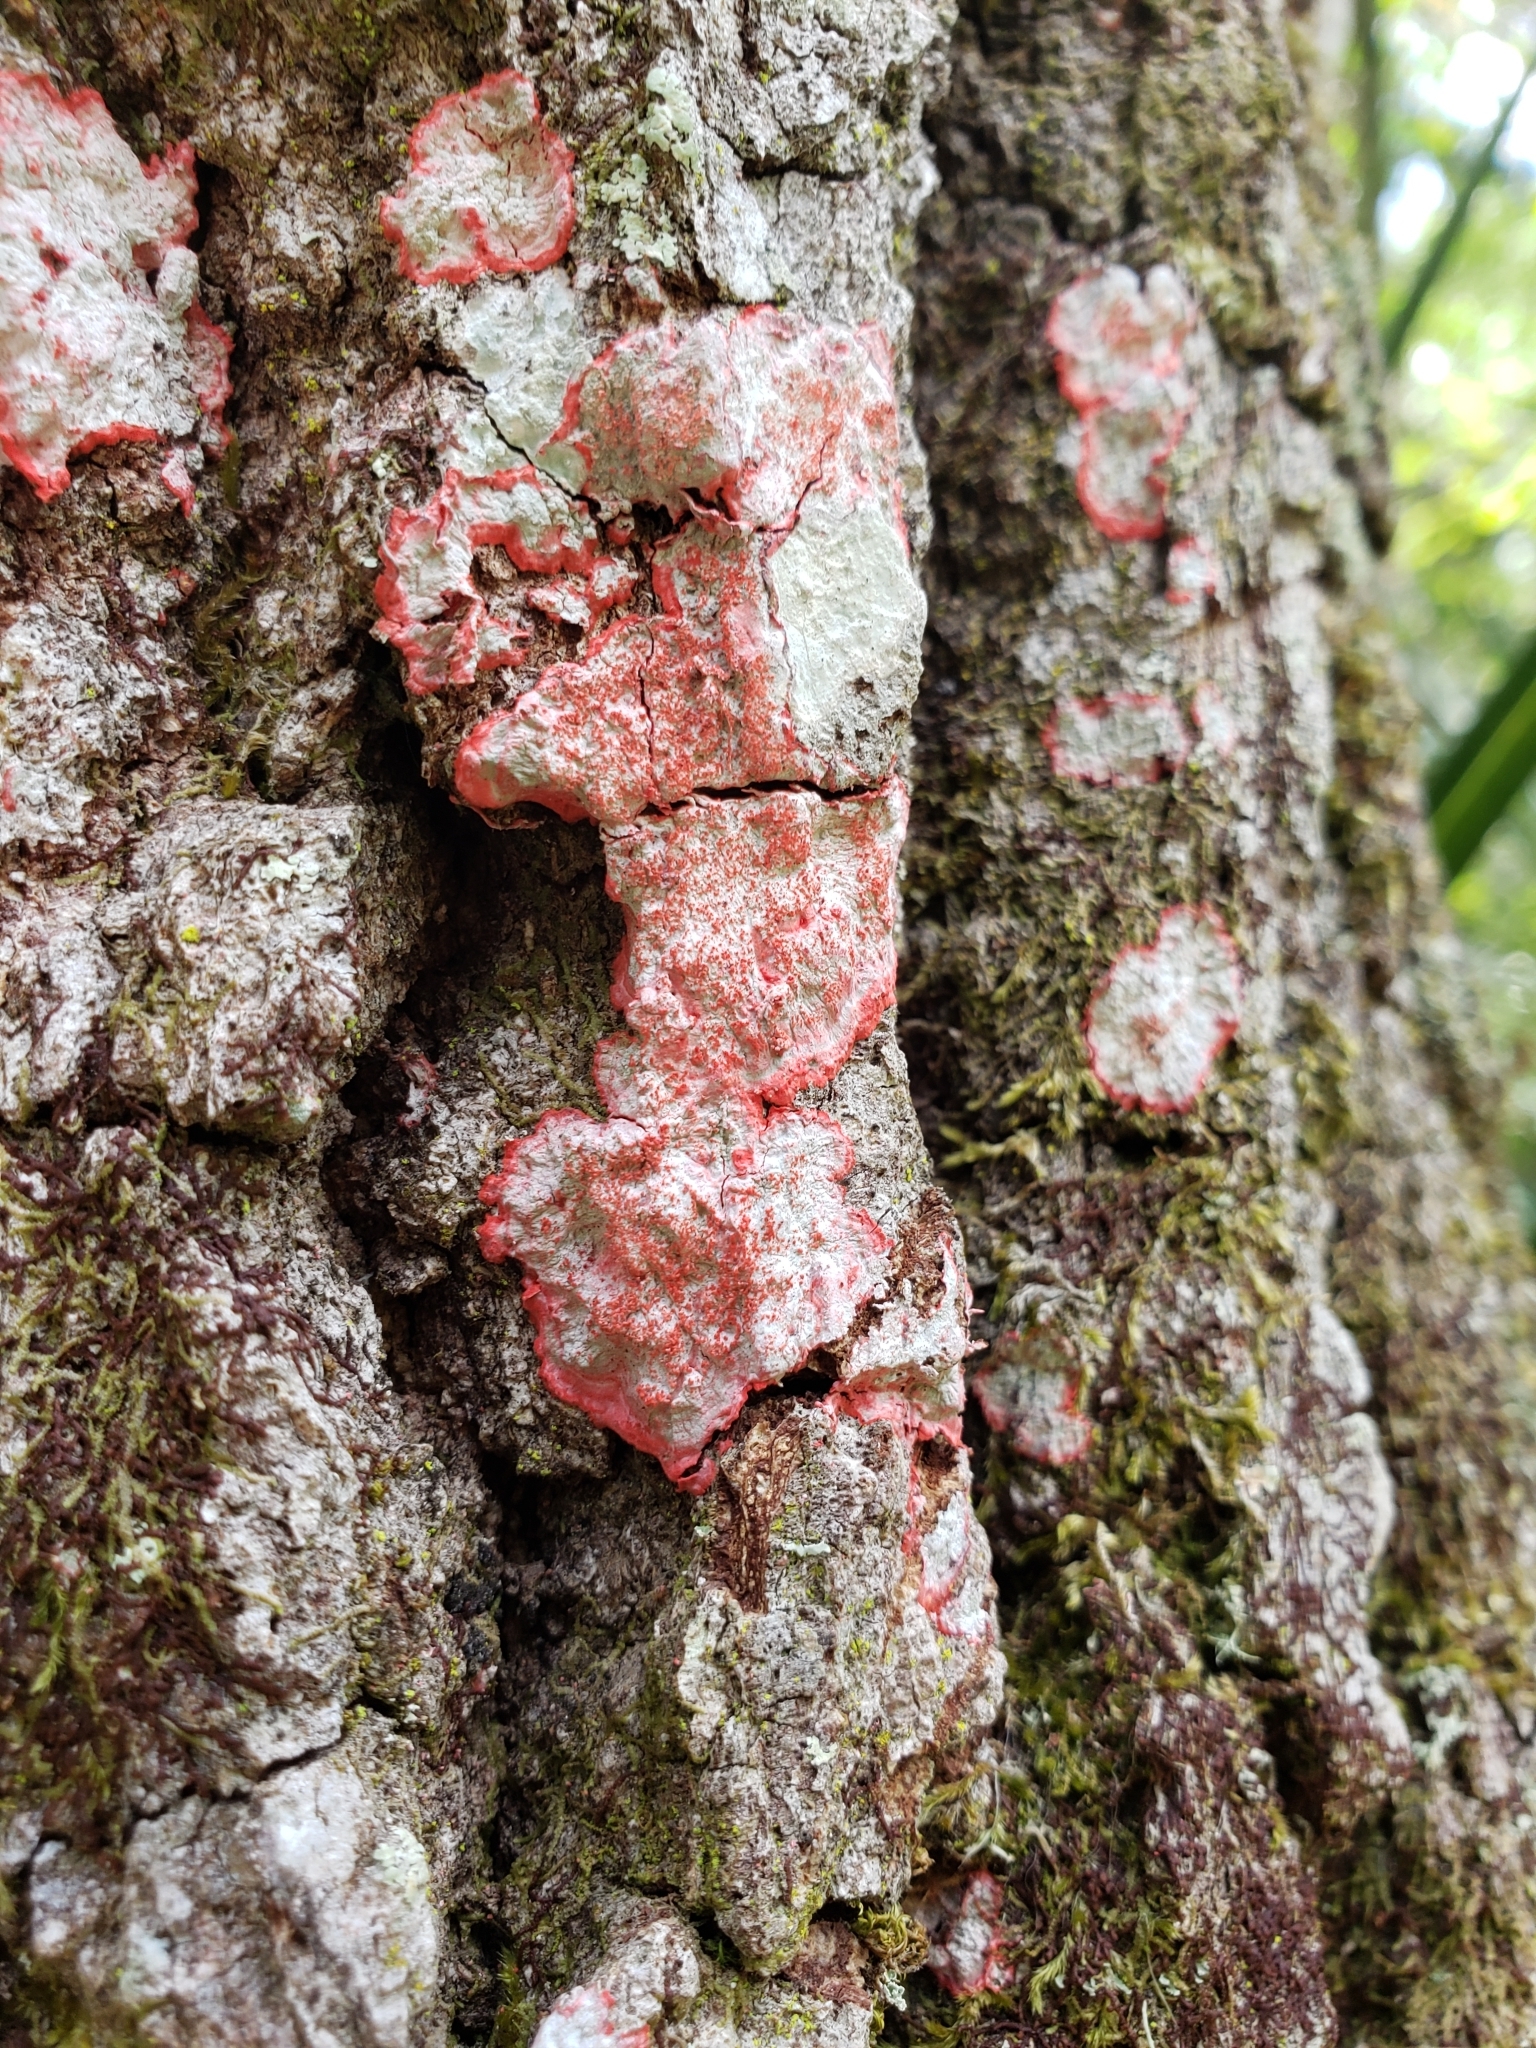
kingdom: Fungi
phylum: Ascomycota
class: Arthoniomycetes
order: Arthoniales
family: Arthoniaceae
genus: Herpothallon
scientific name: Herpothallon rubrocinctum
